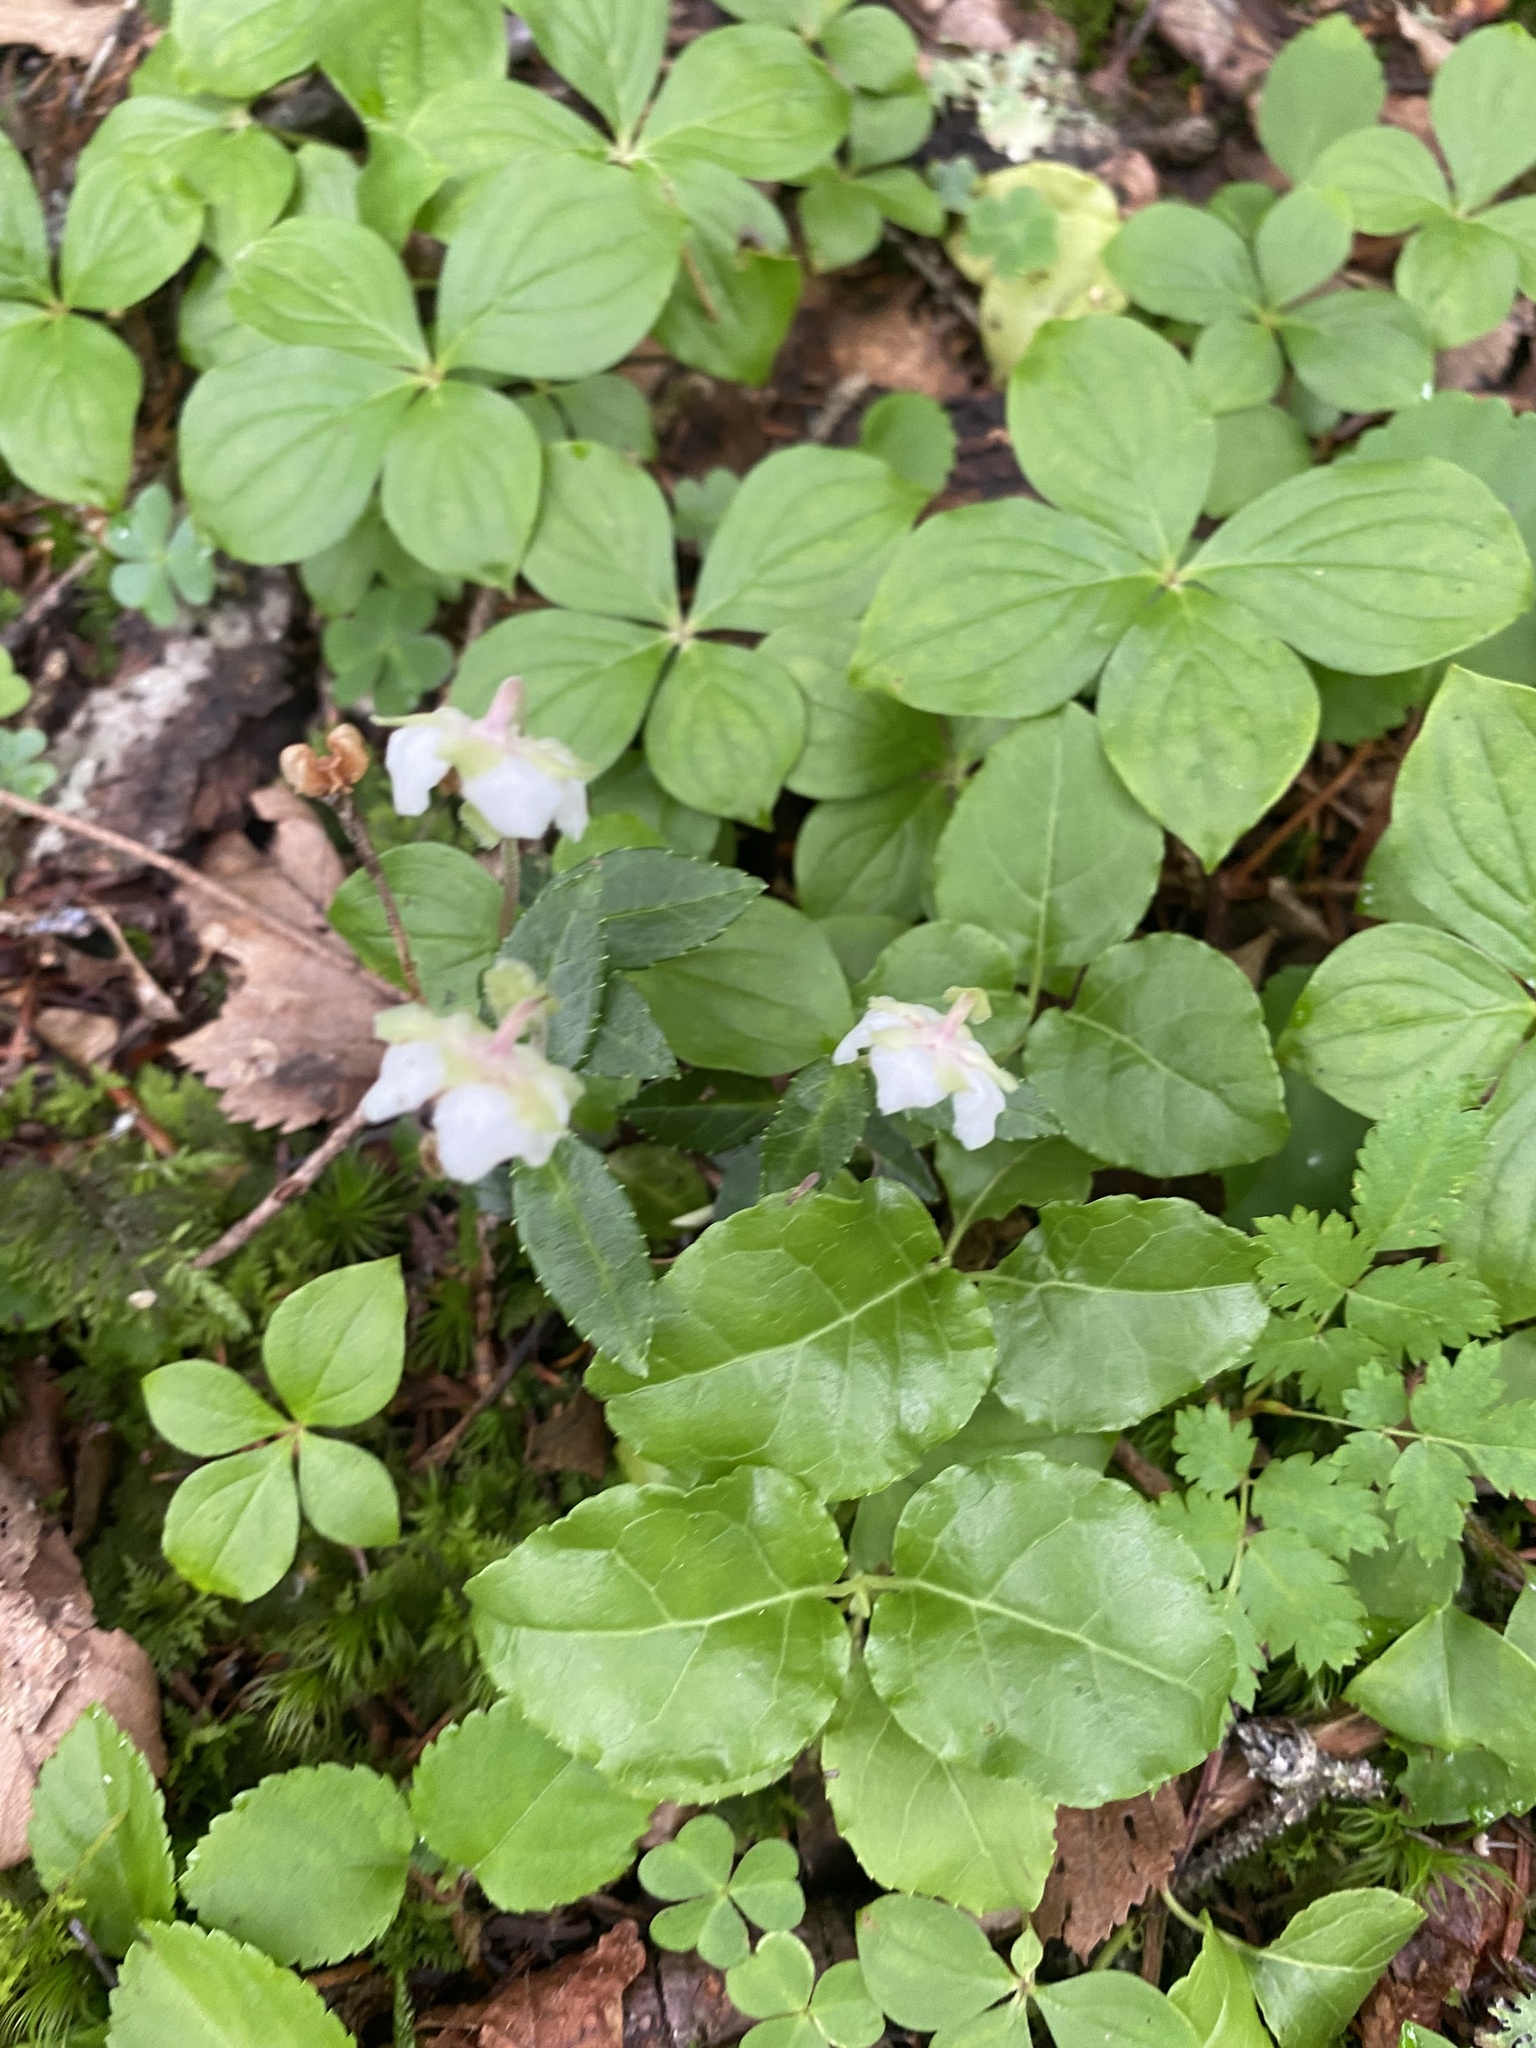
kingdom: Plantae
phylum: Tracheophyta
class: Magnoliopsida
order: Ericales
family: Ericaceae
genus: Chimaphila
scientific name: Chimaphila japonica
